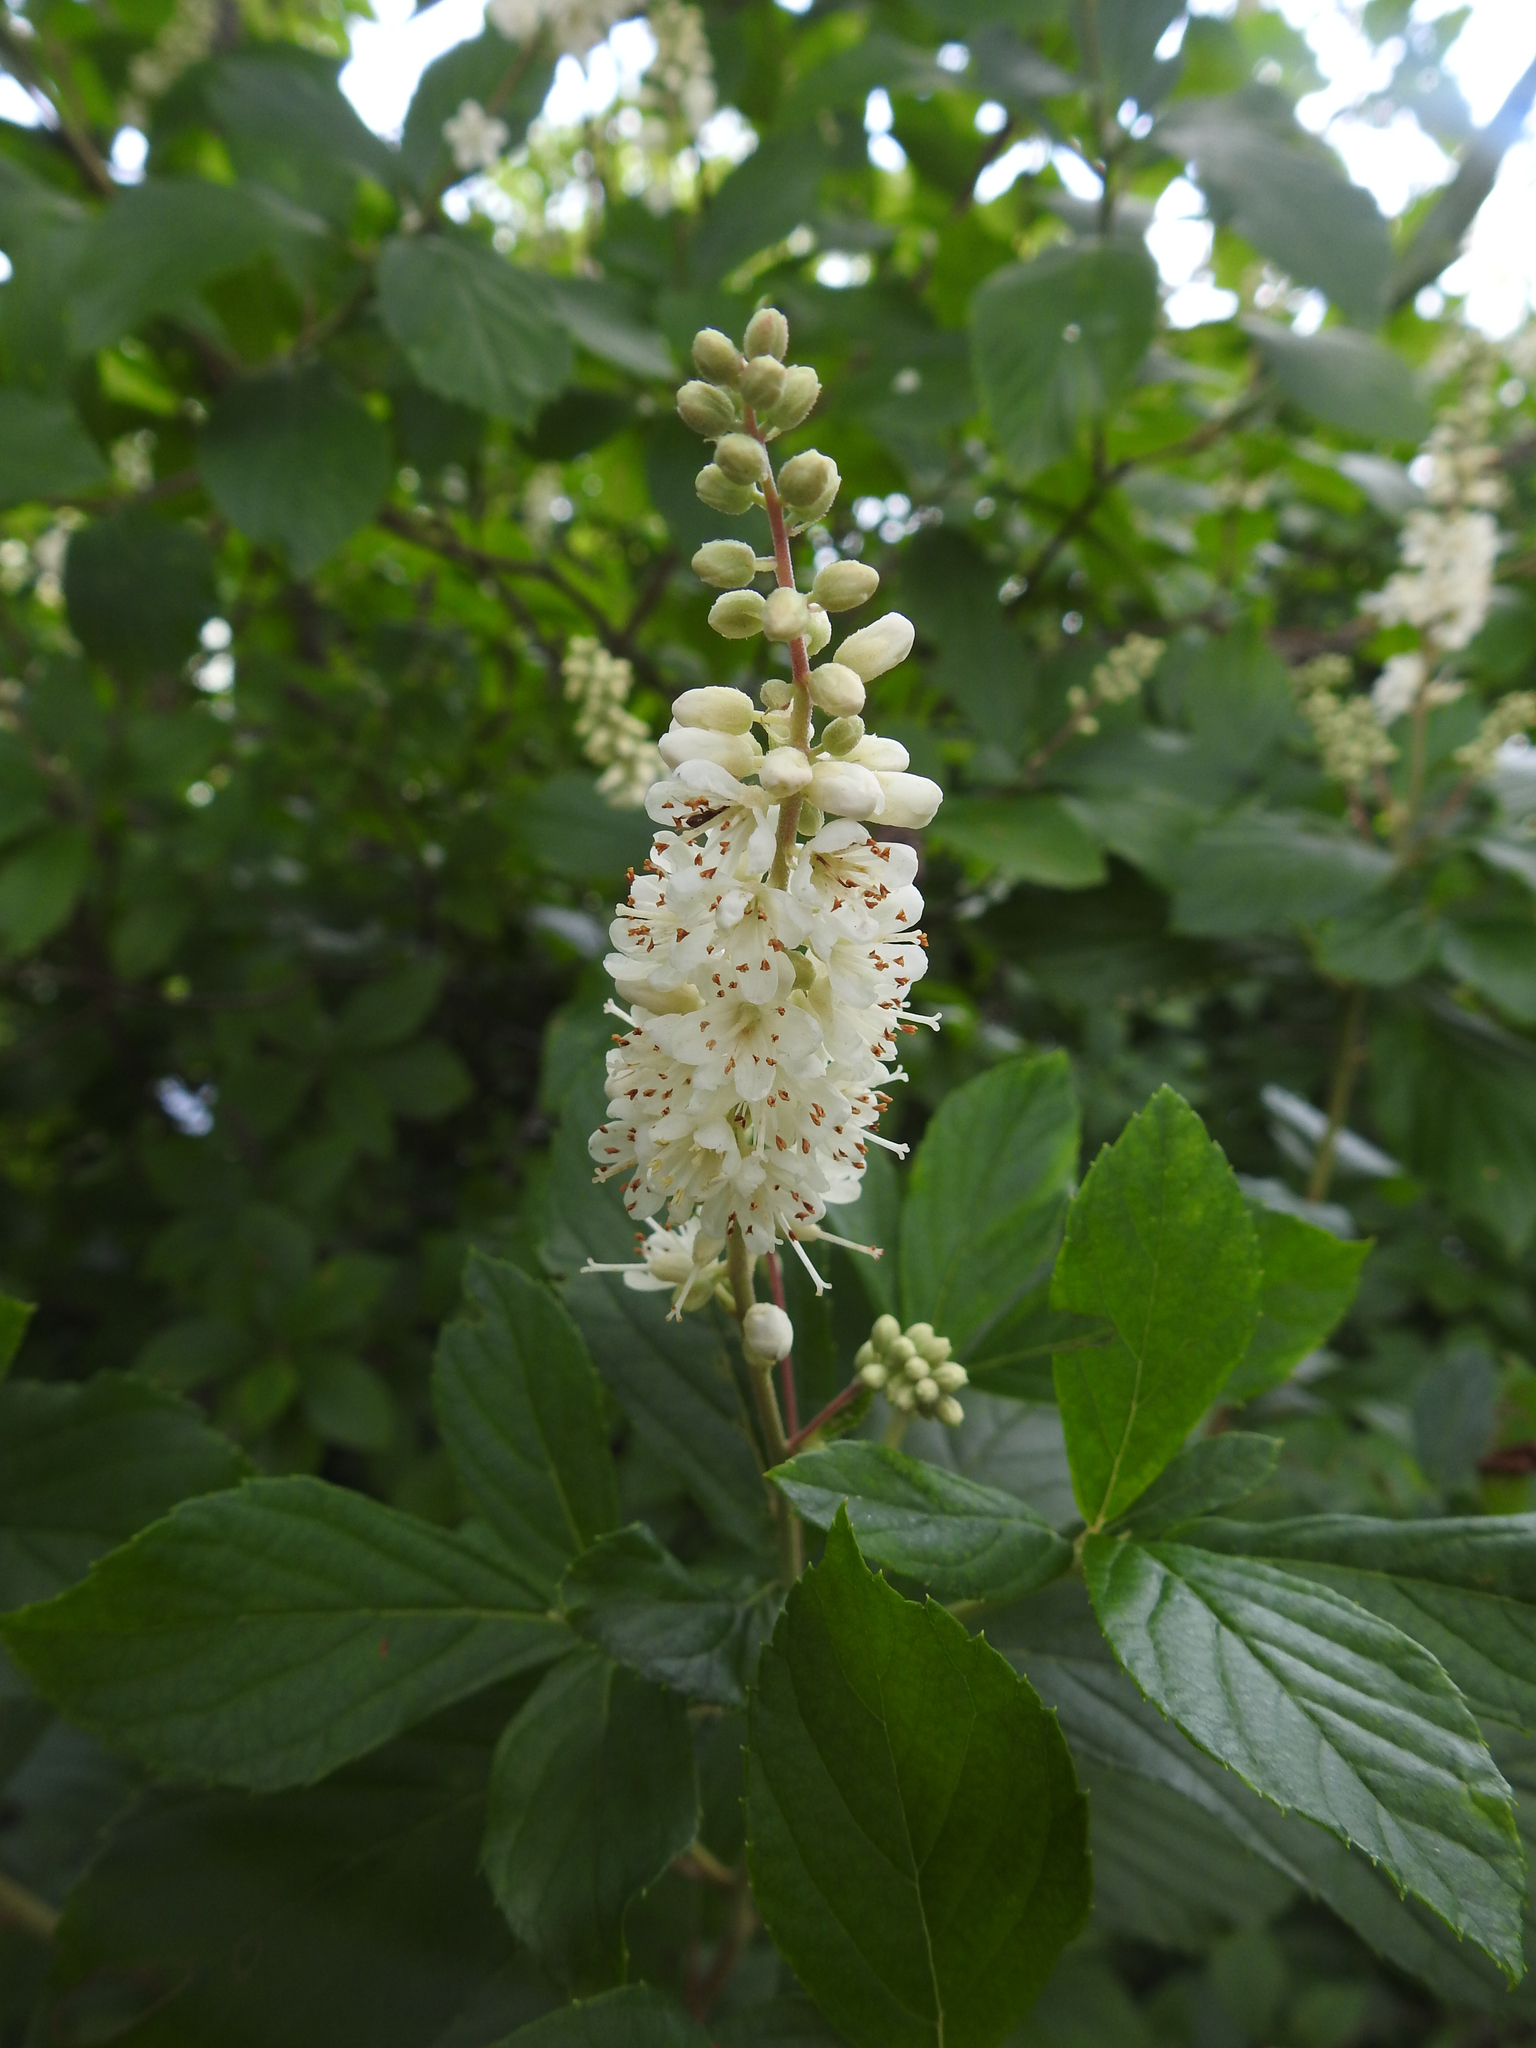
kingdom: Plantae
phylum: Tracheophyta
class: Magnoliopsida
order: Ericales
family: Clethraceae
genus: Clethra
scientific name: Clethra alnifolia
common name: Sweet pepperbush
